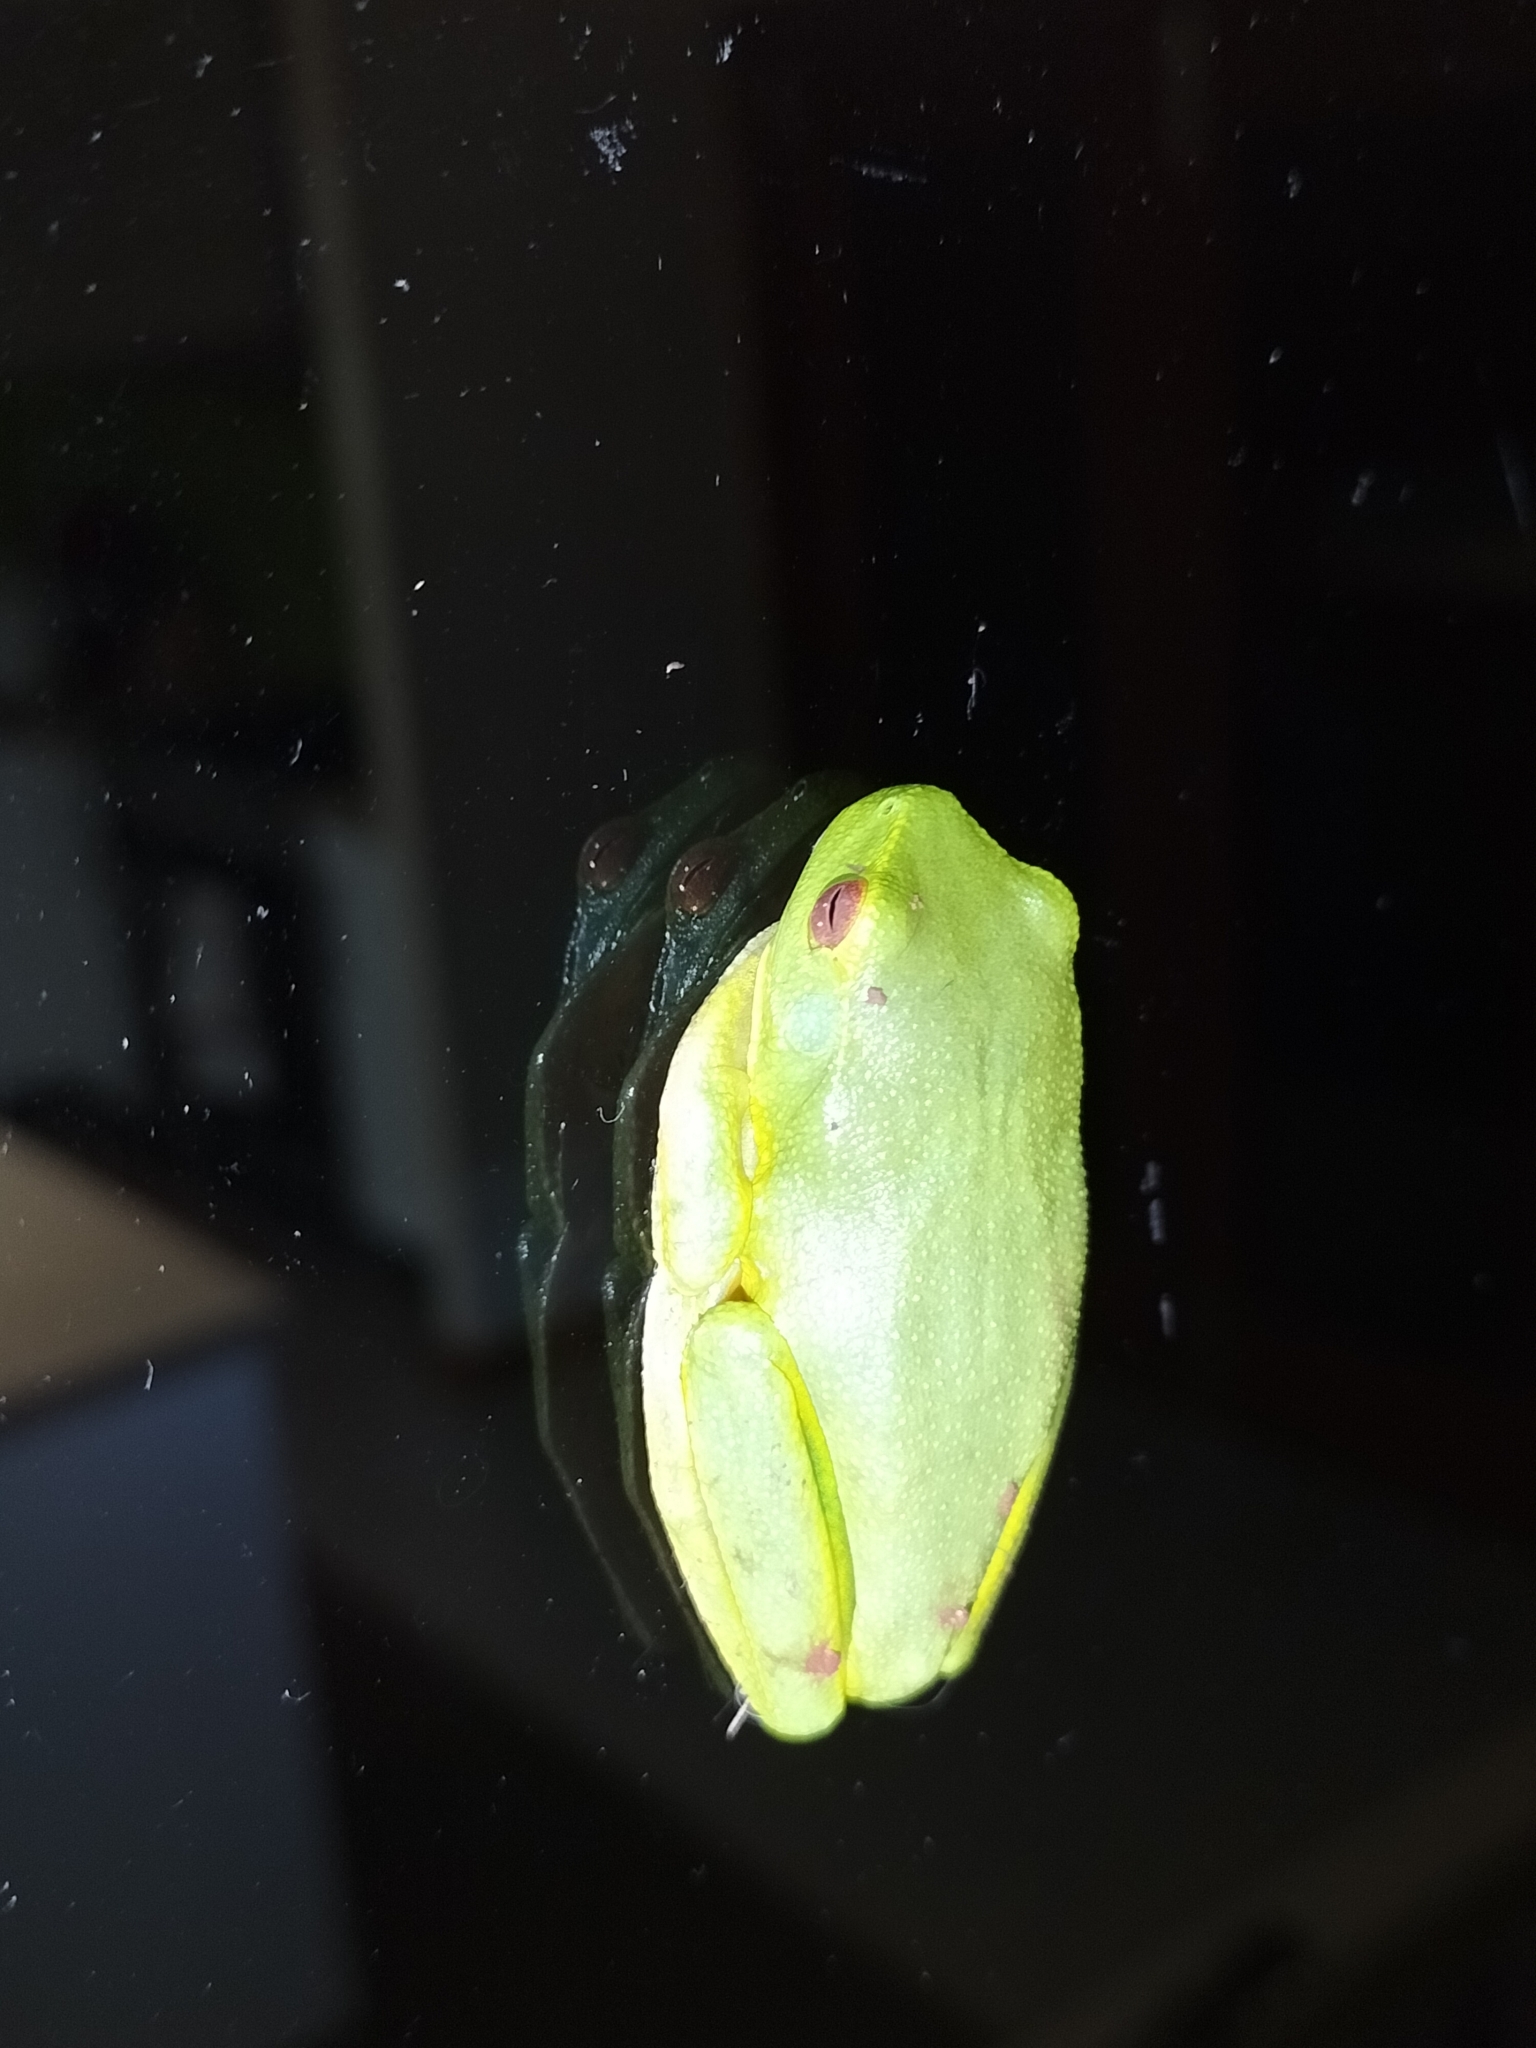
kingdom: Animalia
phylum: Chordata
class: Amphibia
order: Anura
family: Pelodryadidae
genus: Ranoidea
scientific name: Ranoidea gracilenta
